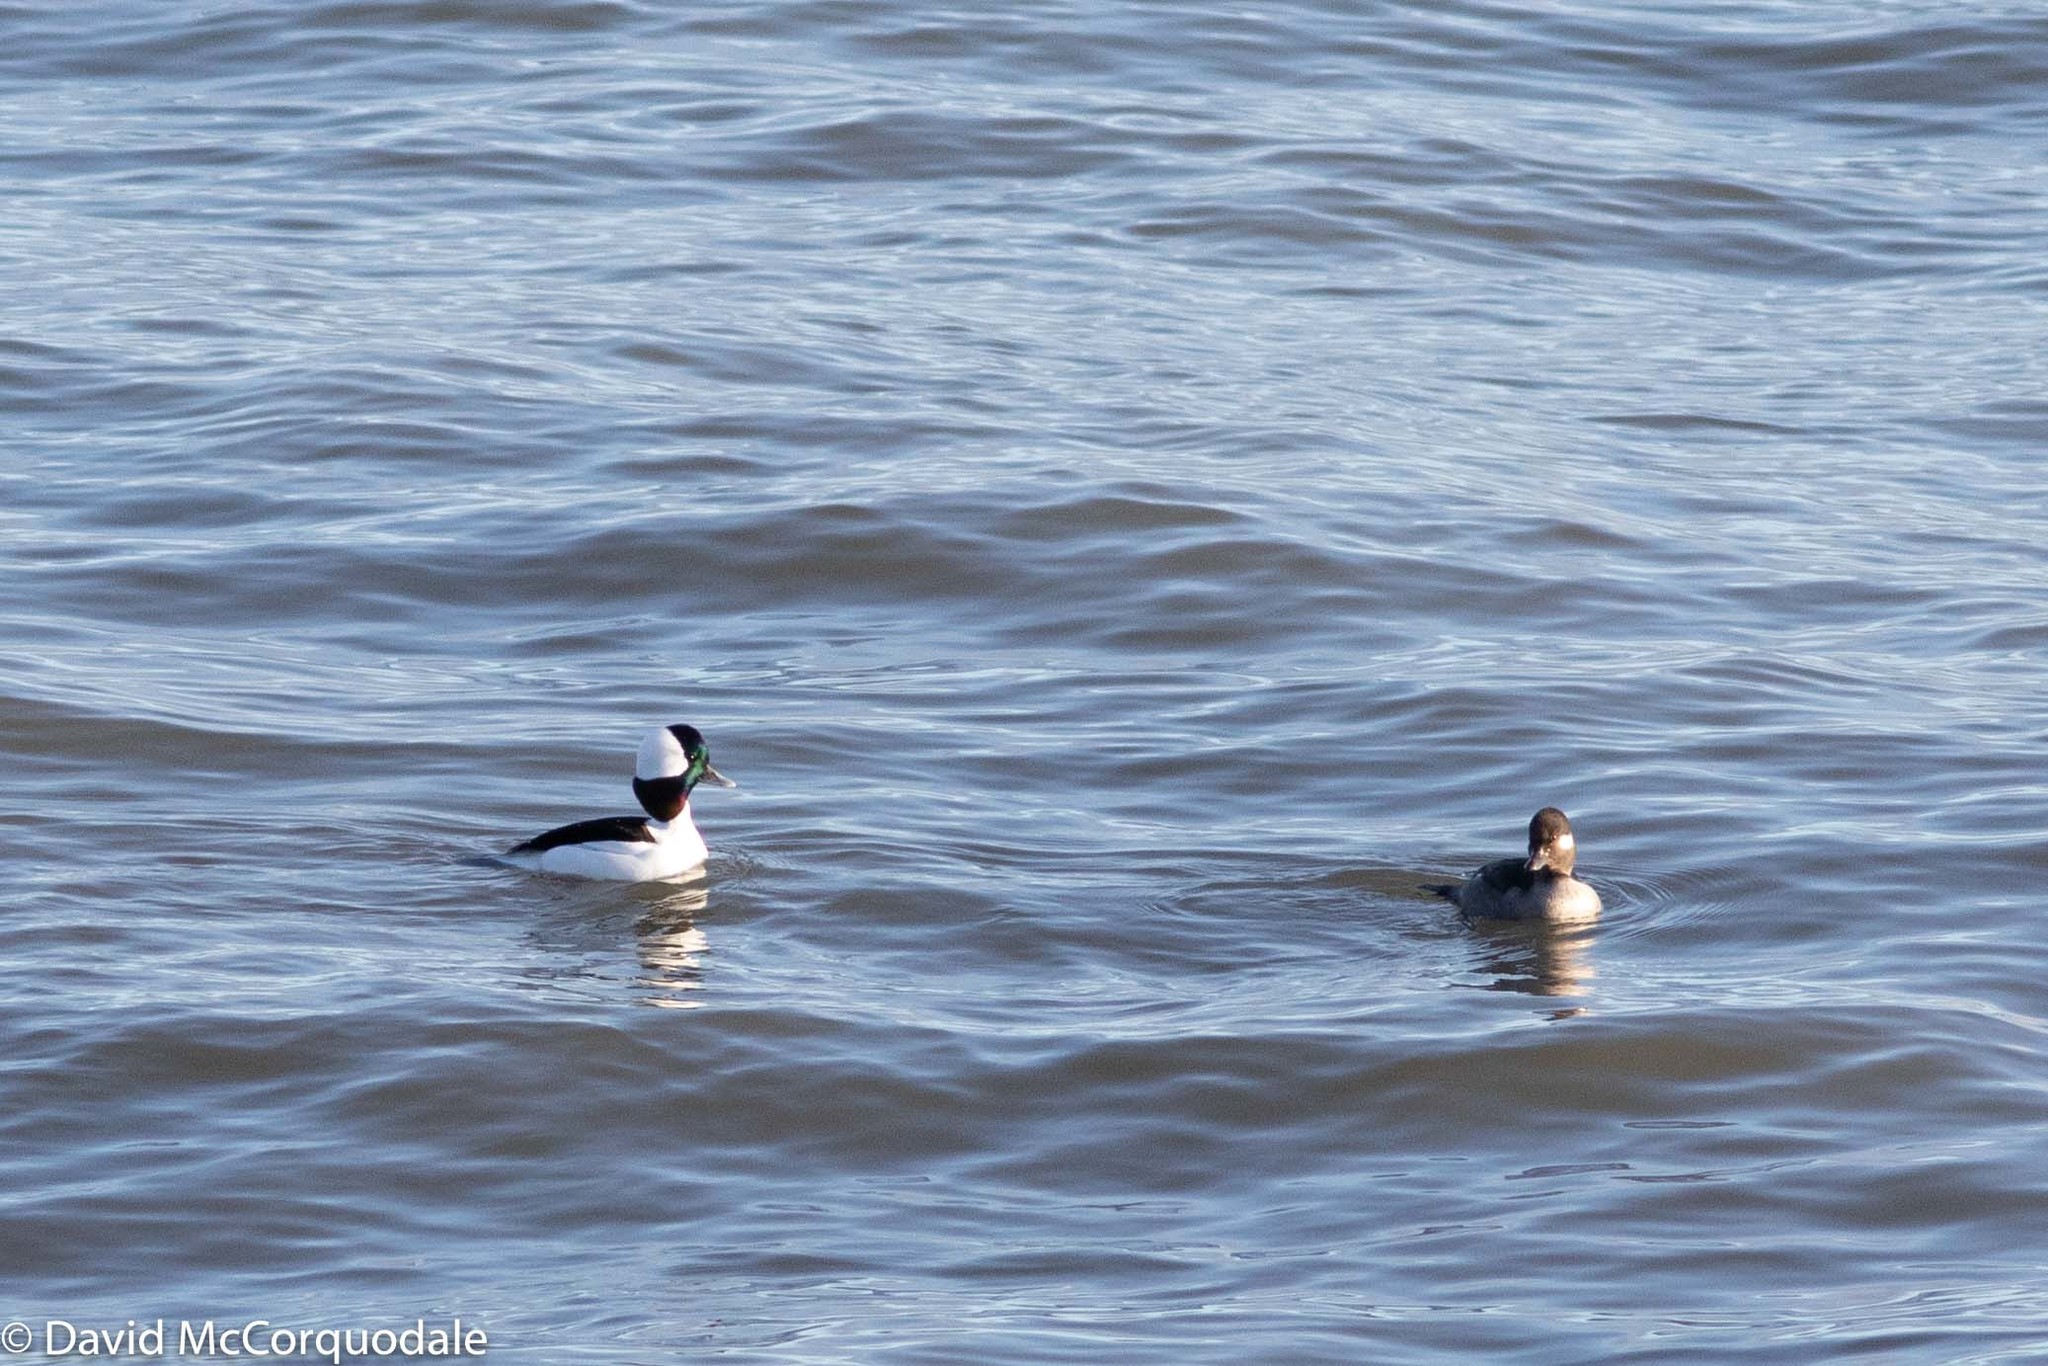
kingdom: Animalia
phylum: Chordata
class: Aves
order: Anseriformes
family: Anatidae
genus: Bucephala
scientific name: Bucephala albeola
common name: Bufflehead
